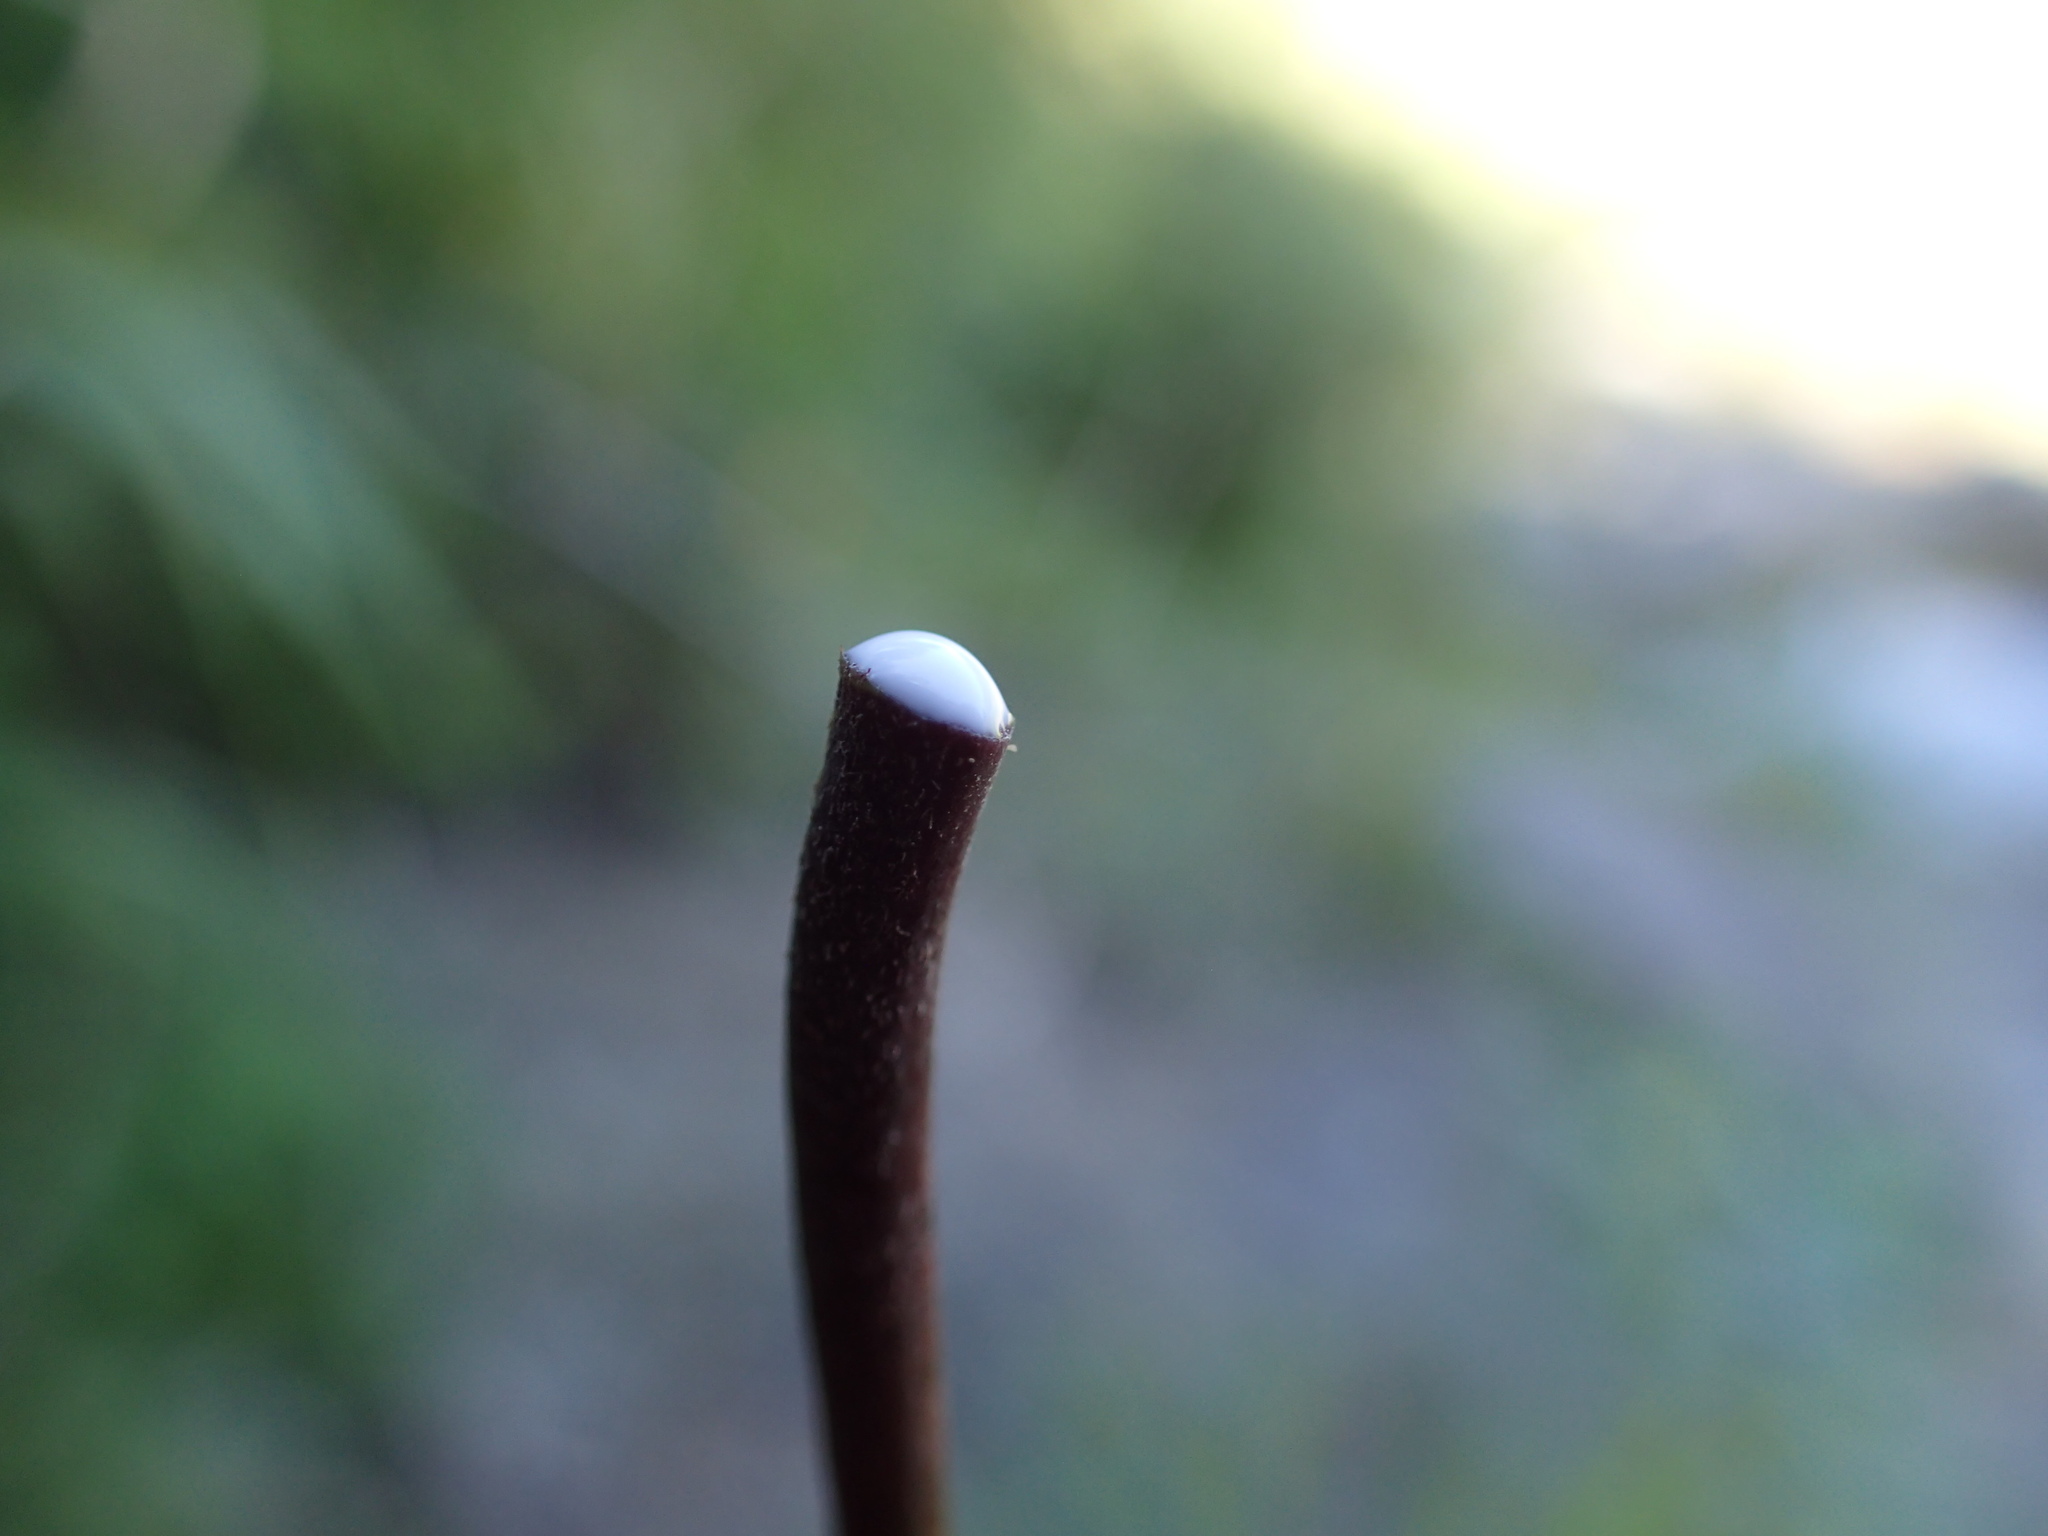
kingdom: Plantae
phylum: Tracheophyta
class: Magnoliopsida
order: Ericales
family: Sapotaceae
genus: Vitellariopsis
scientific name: Vitellariopsis marginata
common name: Flatcap milkwood
